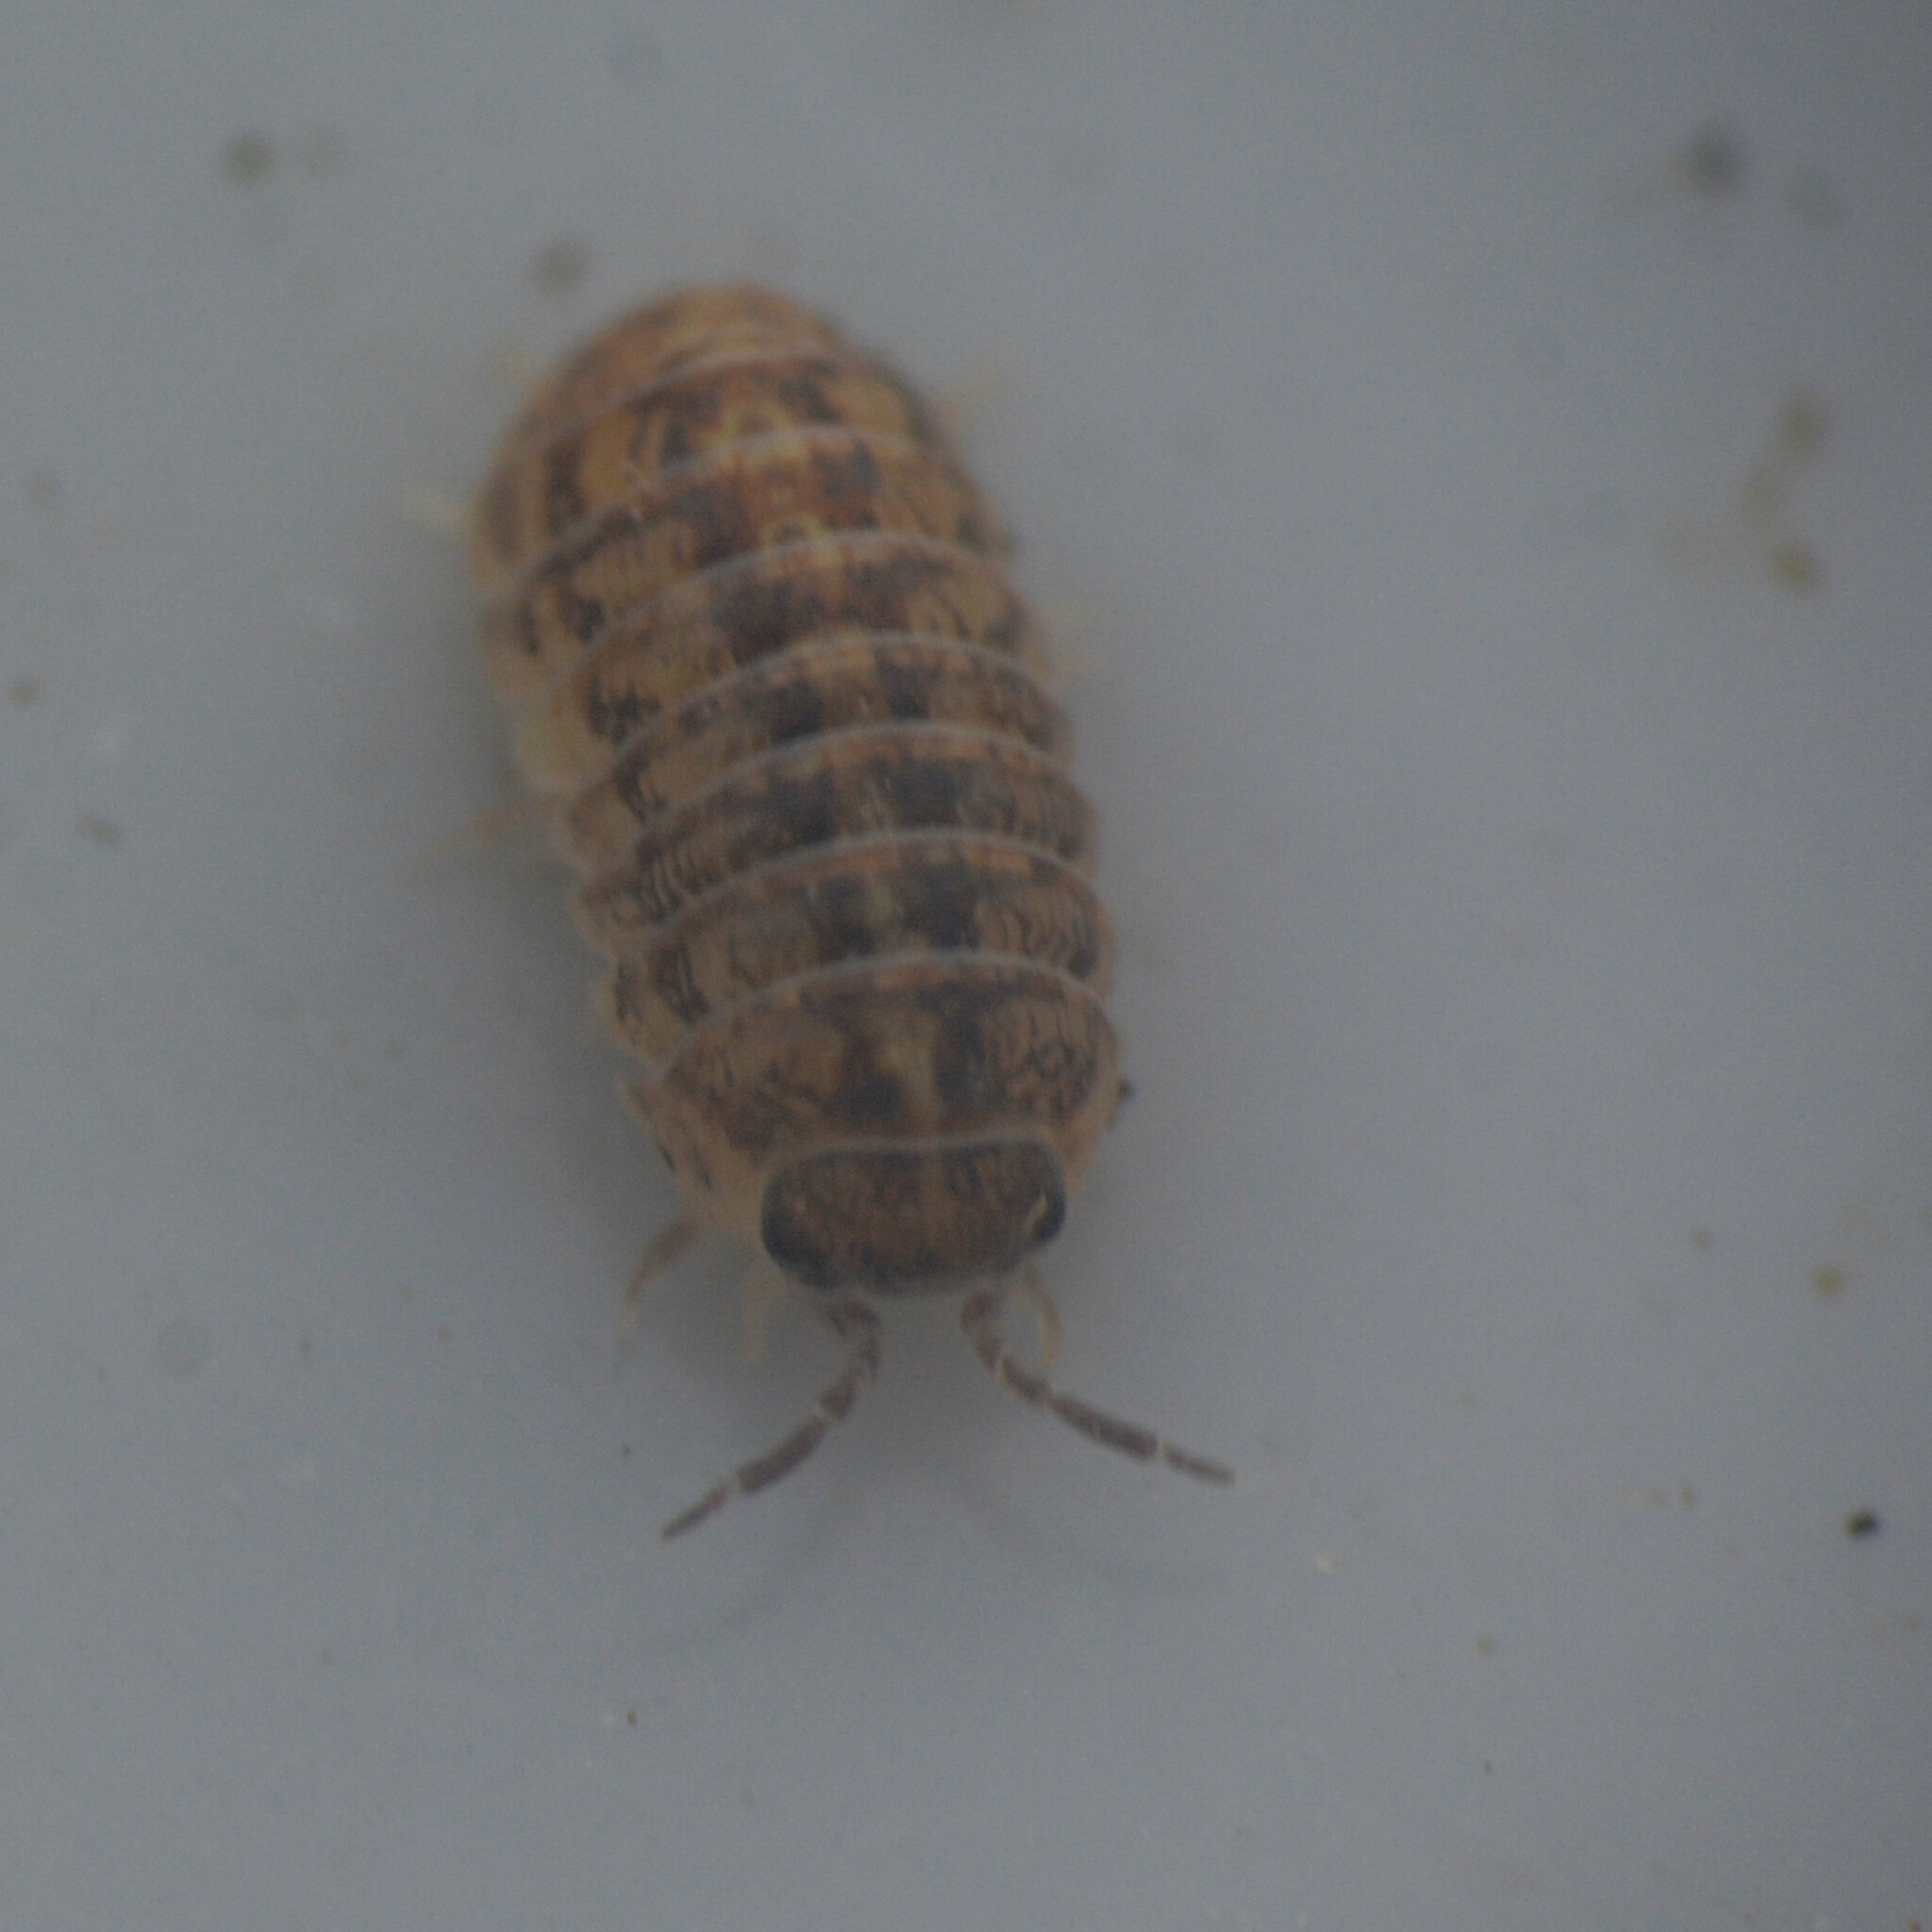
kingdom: Animalia
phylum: Arthropoda
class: Malacostraca
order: Isopoda
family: Armadillidiidae
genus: Armadillidium
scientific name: Armadillidium vulgare
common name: Common pill woodlouse
